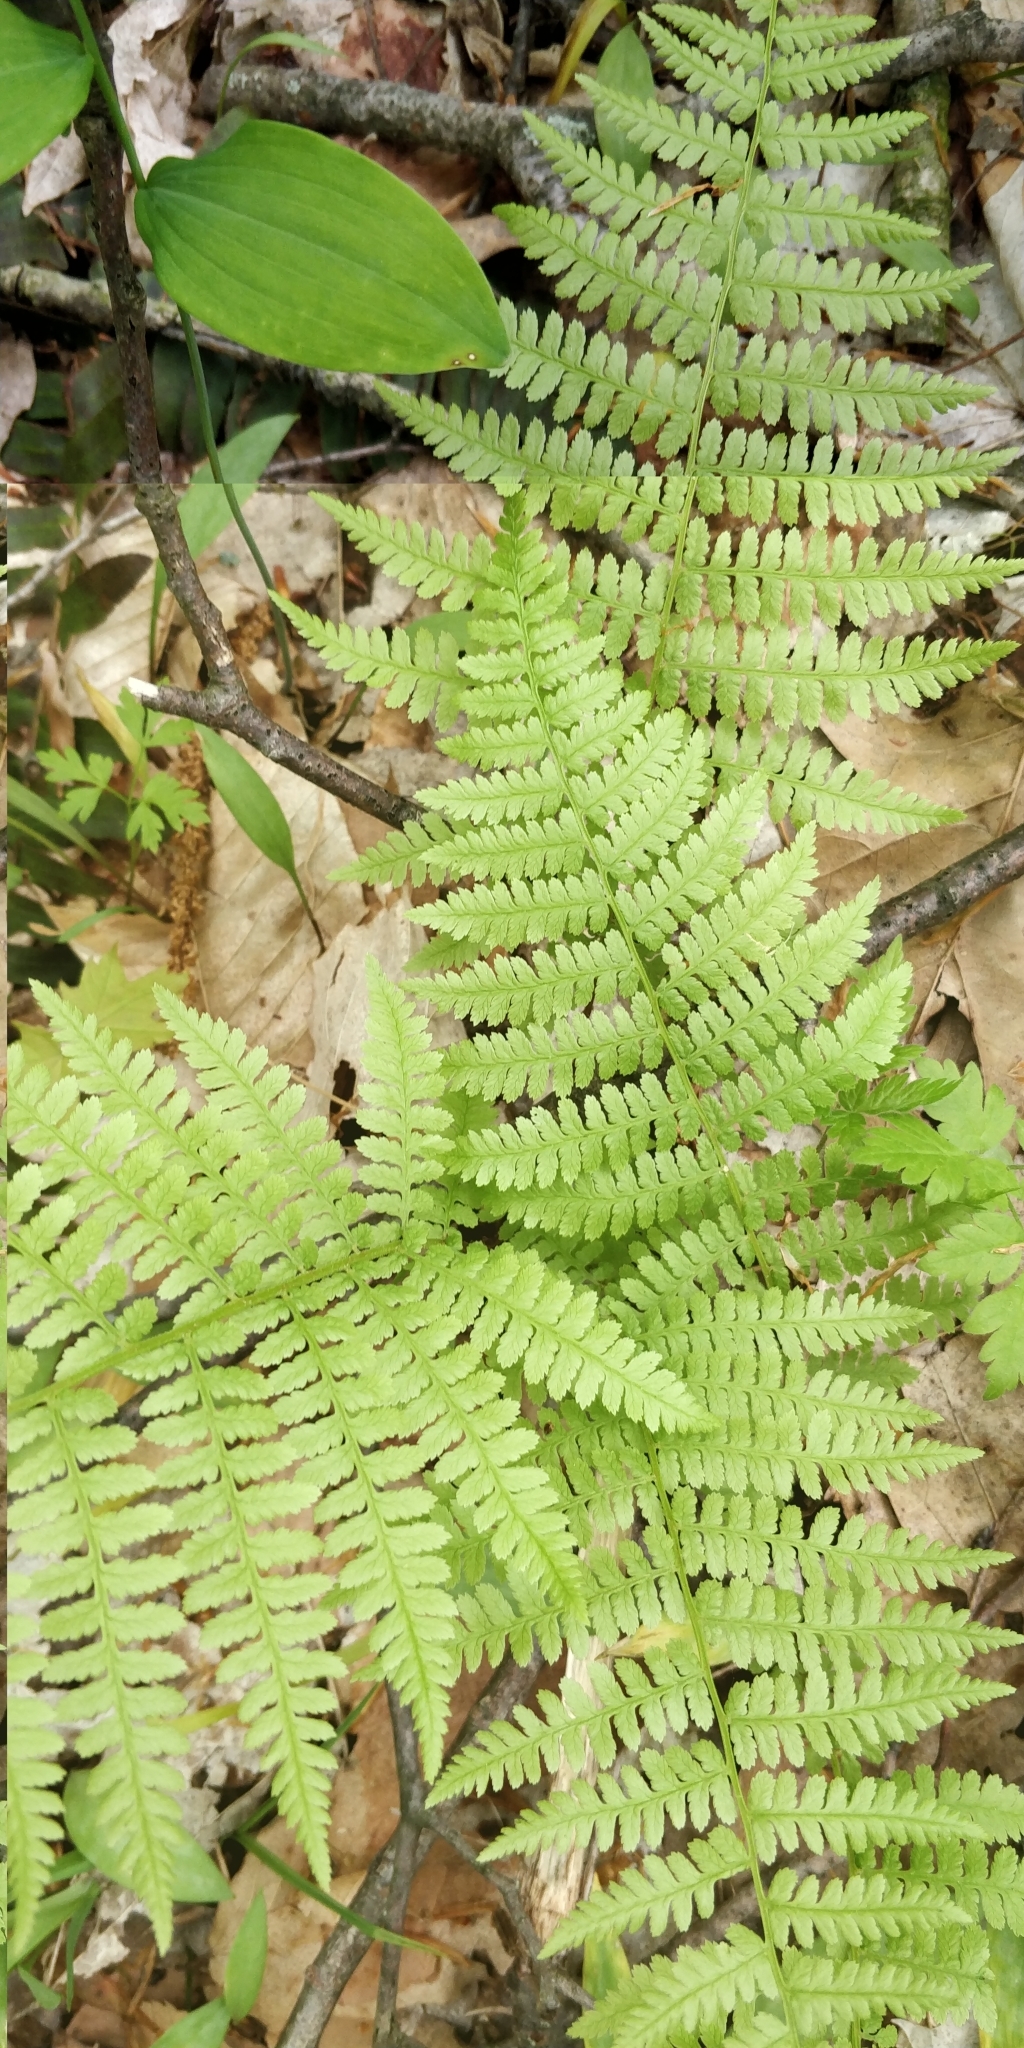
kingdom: Plantae
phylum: Tracheophyta
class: Polypodiopsida
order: Polypodiales
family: Athyriaceae
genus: Athyrium
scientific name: Athyrium angustum
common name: Northern lady fern
